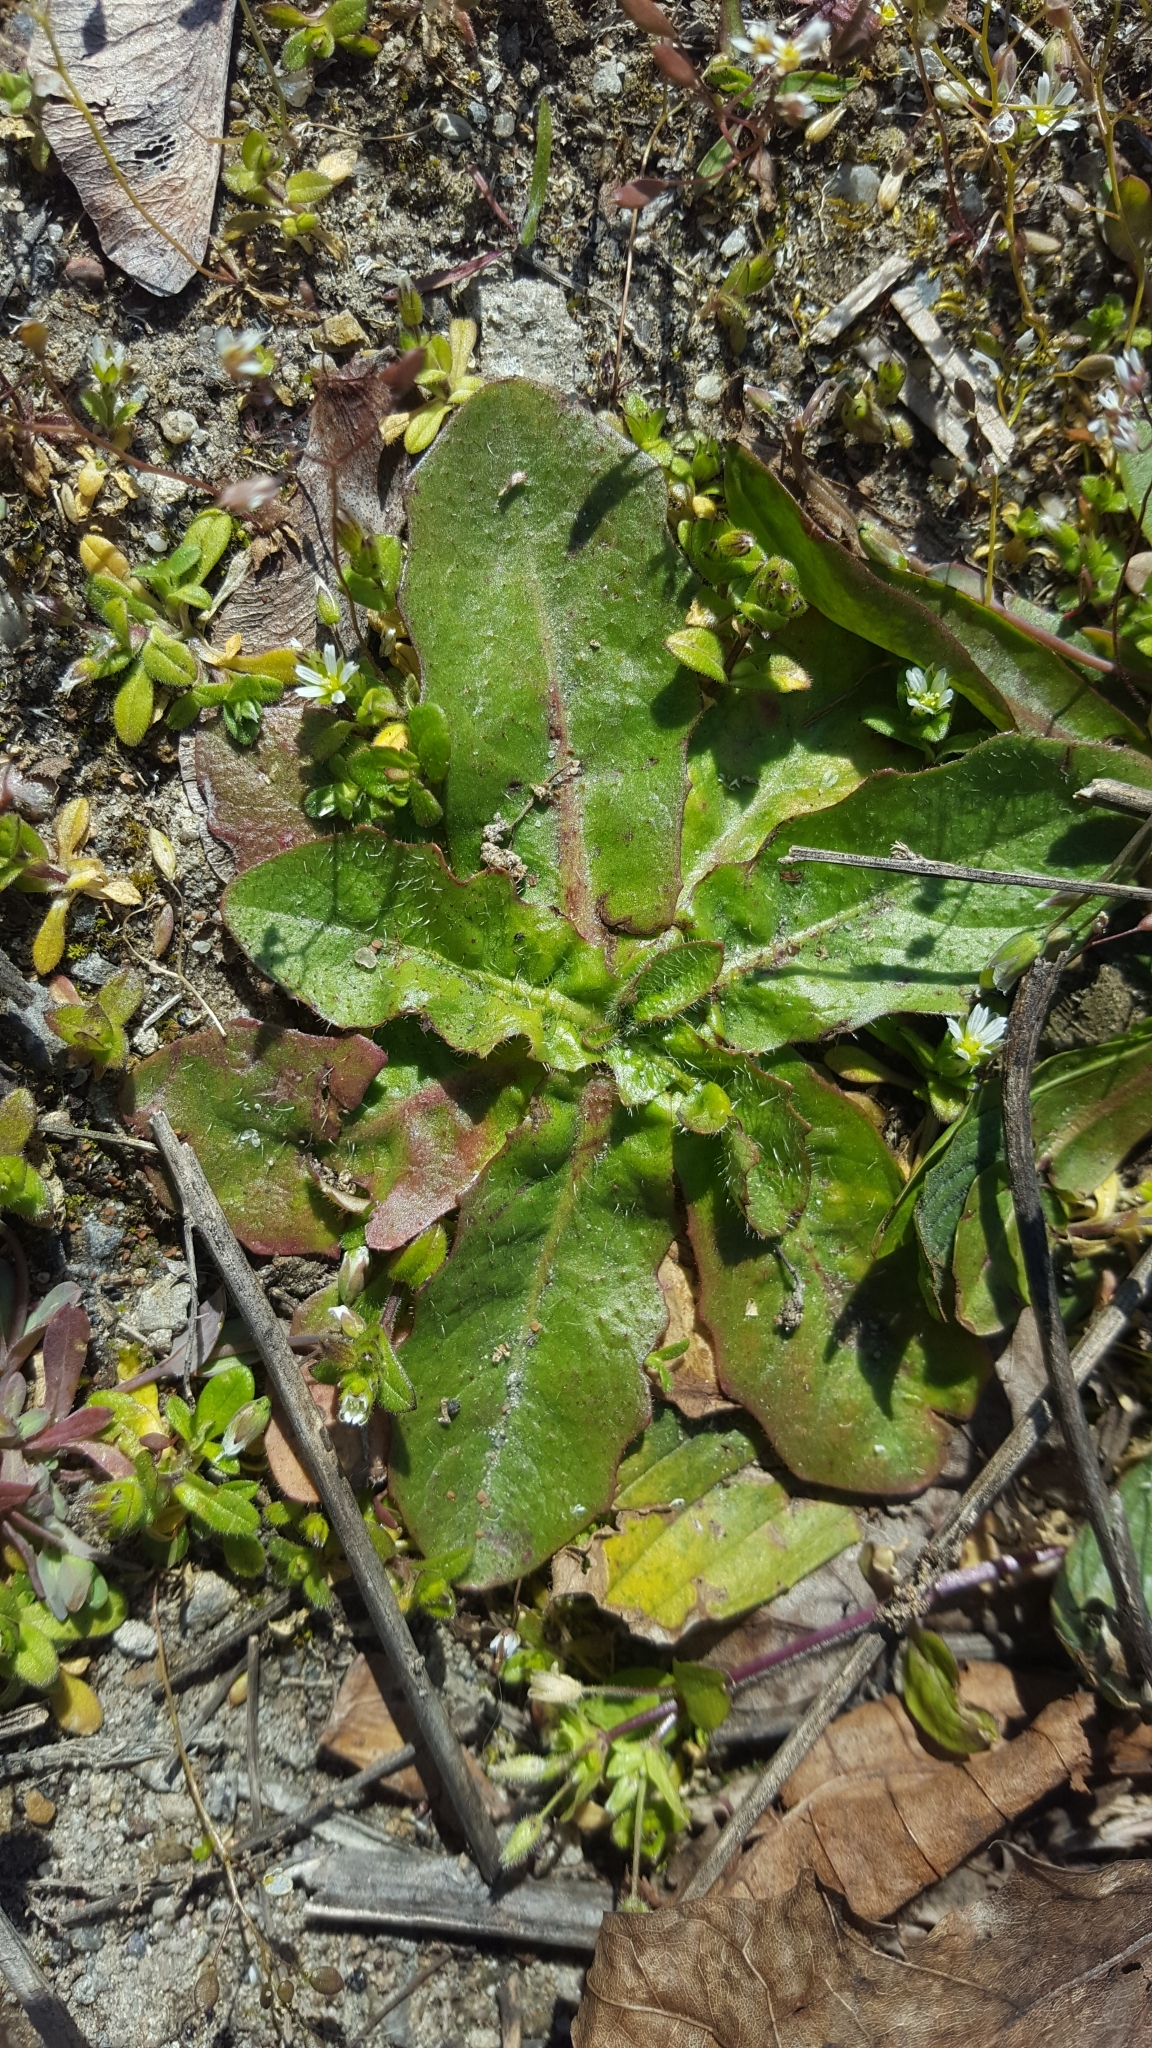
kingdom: Plantae
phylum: Tracheophyta
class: Magnoliopsida
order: Asterales
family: Asteraceae
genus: Hypochaeris
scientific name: Hypochaeris radicata
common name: Flatweed
